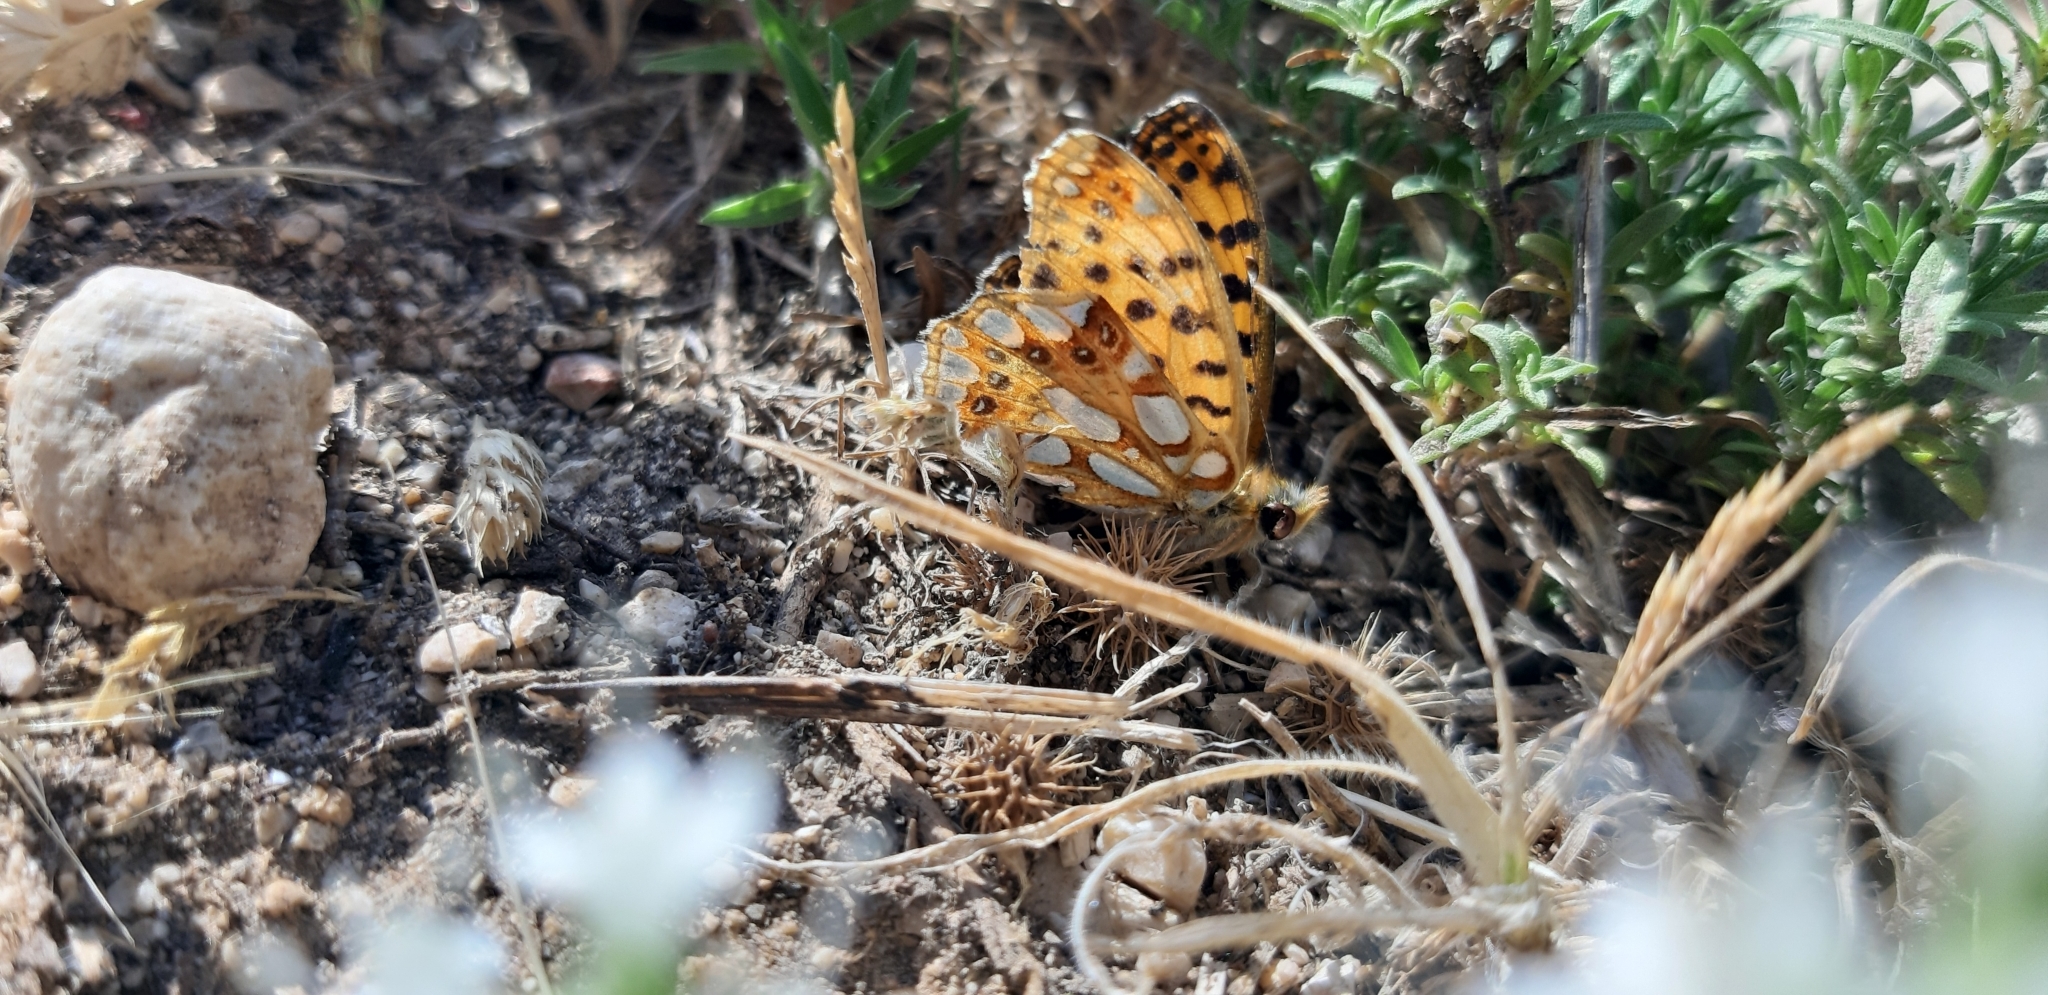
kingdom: Animalia
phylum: Arthropoda
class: Insecta
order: Lepidoptera
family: Nymphalidae
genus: Issoria
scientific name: Issoria lathonia
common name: Queen of spain fritillary
